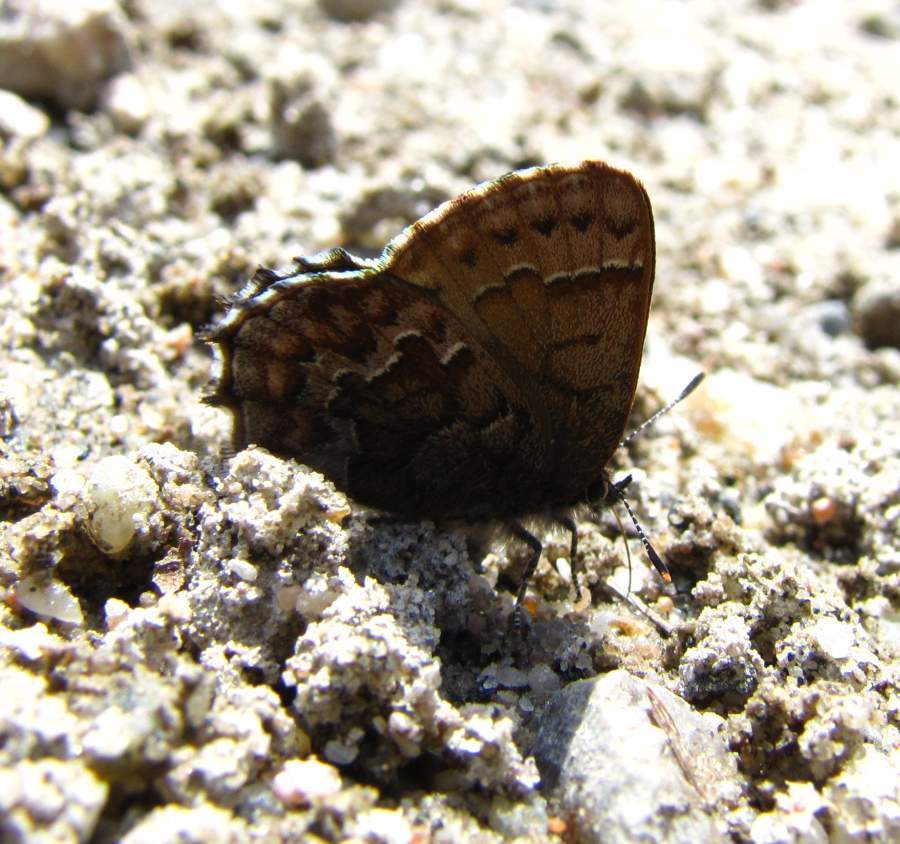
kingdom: Animalia
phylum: Arthropoda
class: Insecta
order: Lepidoptera
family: Lycaenidae
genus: Incisalia
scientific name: Incisalia niphon
